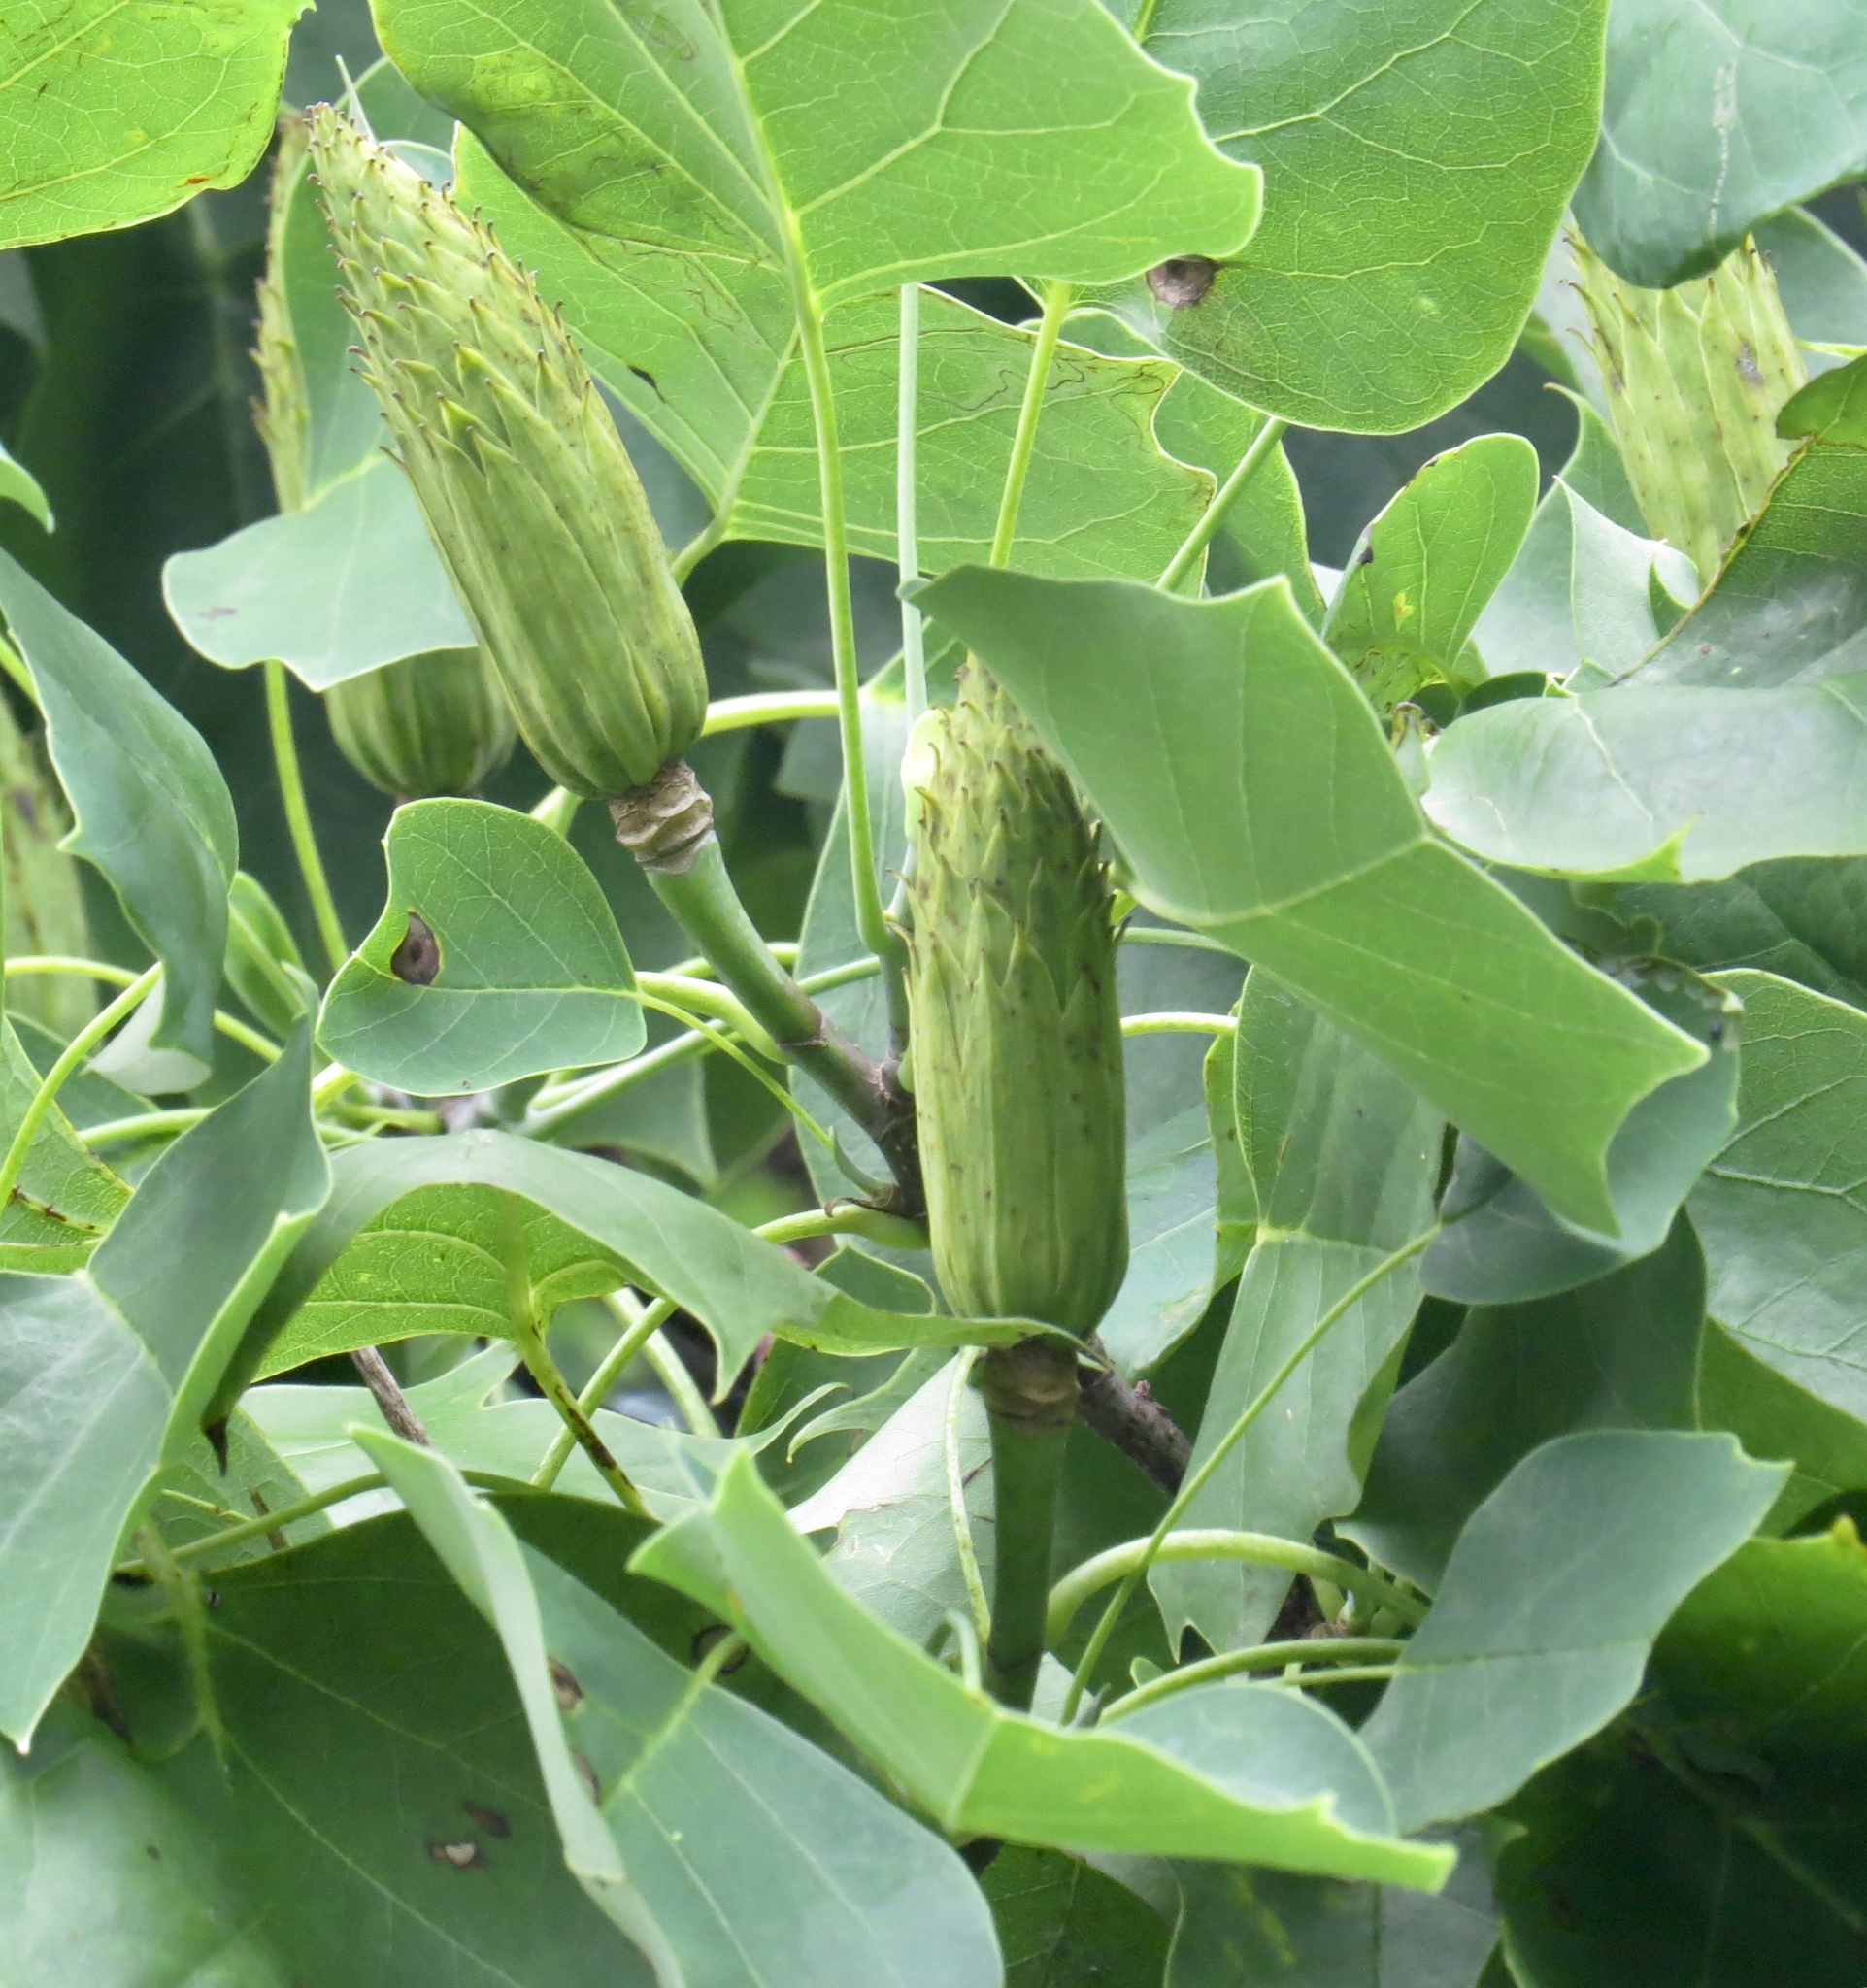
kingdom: Plantae
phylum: Tracheophyta
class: Magnoliopsida
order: Magnoliales
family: Magnoliaceae
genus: Liriodendron
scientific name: Liriodendron tulipifera
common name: Tulip tree
